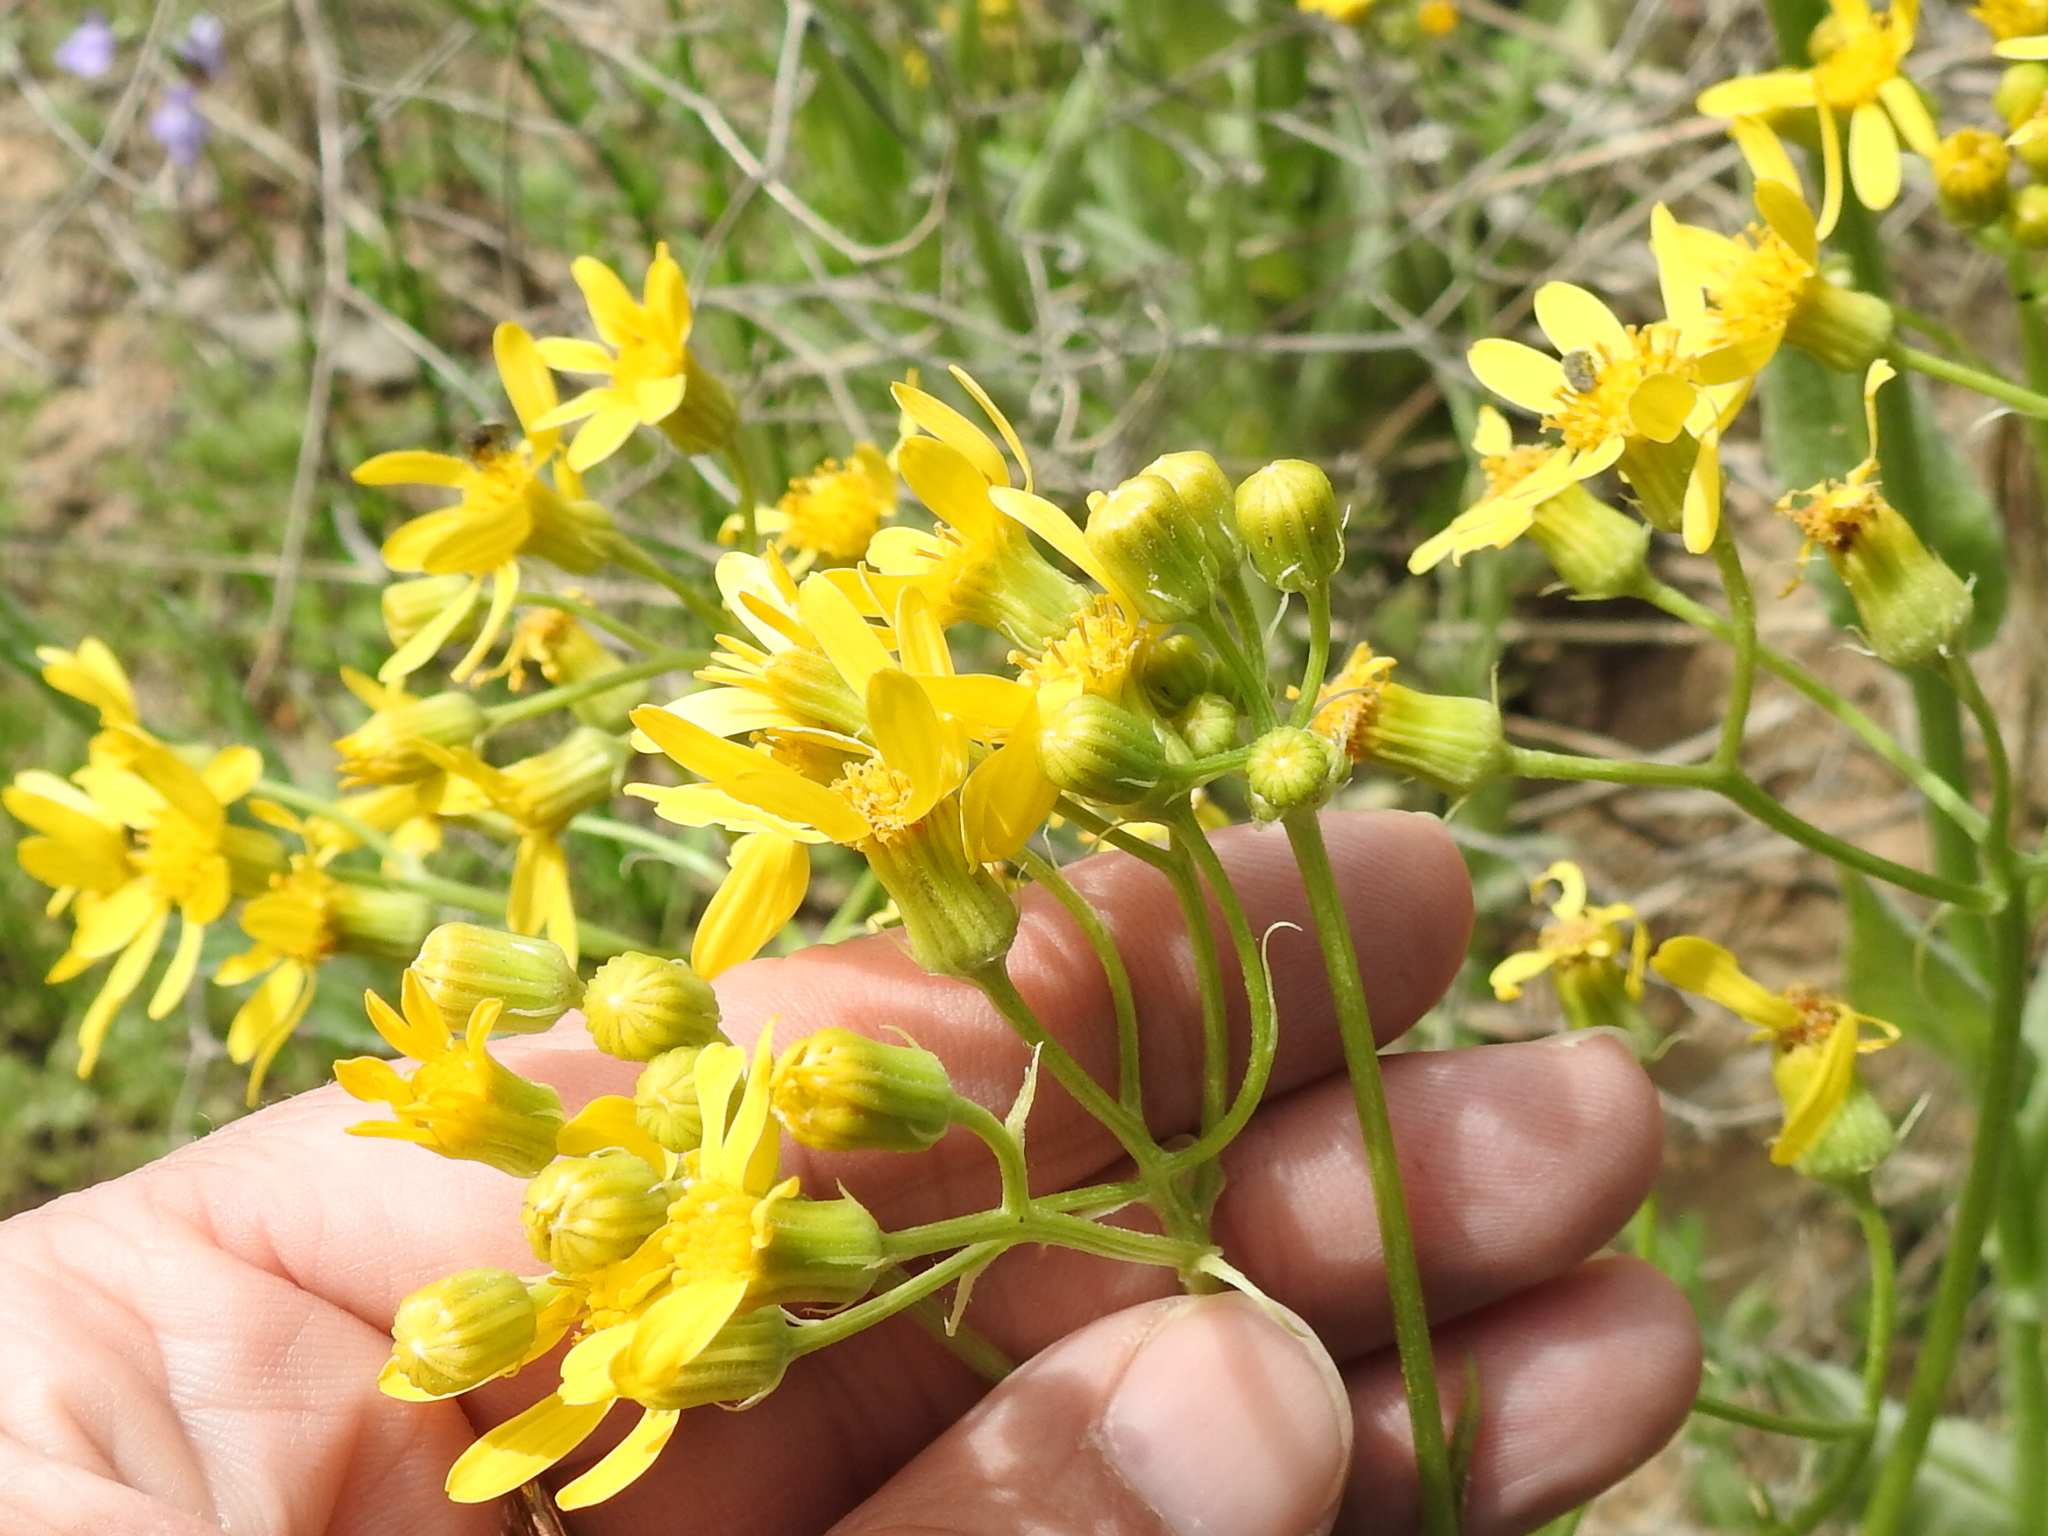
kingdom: Plantae
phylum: Tracheophyta
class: Magnoliopsida
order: Asterales
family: Asteraceae
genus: Senecio
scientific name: Senecio ampullaceus
